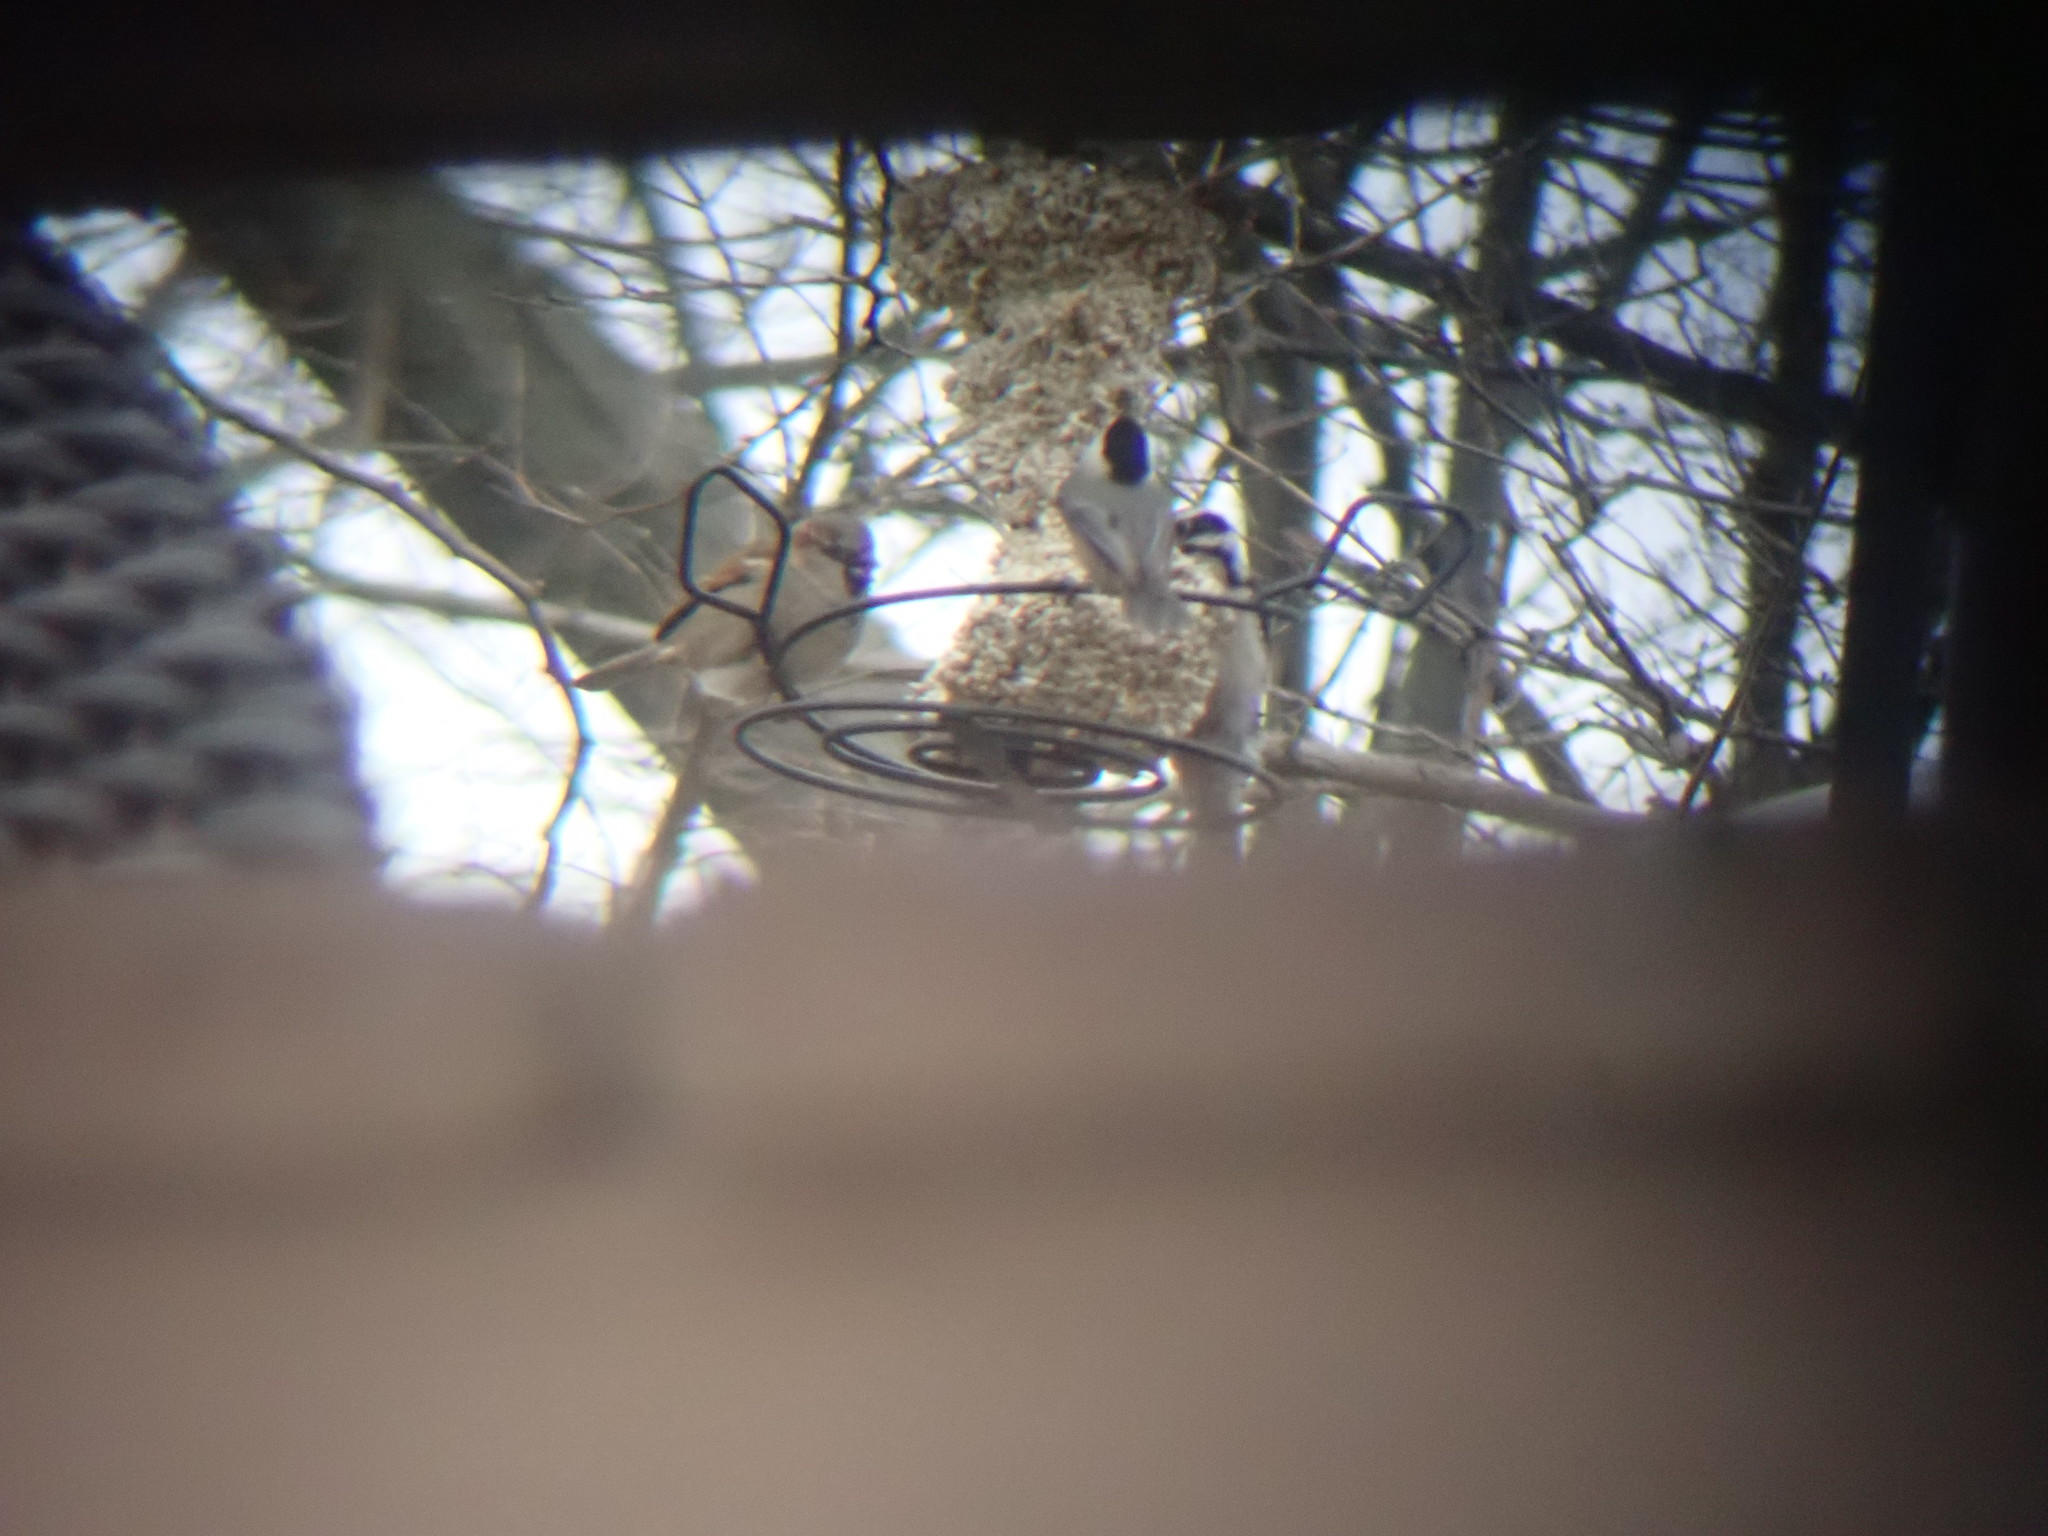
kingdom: Animalia
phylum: Chordata
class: Aves
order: Passeriformes
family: Paridae
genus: Poecile
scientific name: Poecile carolinensis
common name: Carolina chickadee
